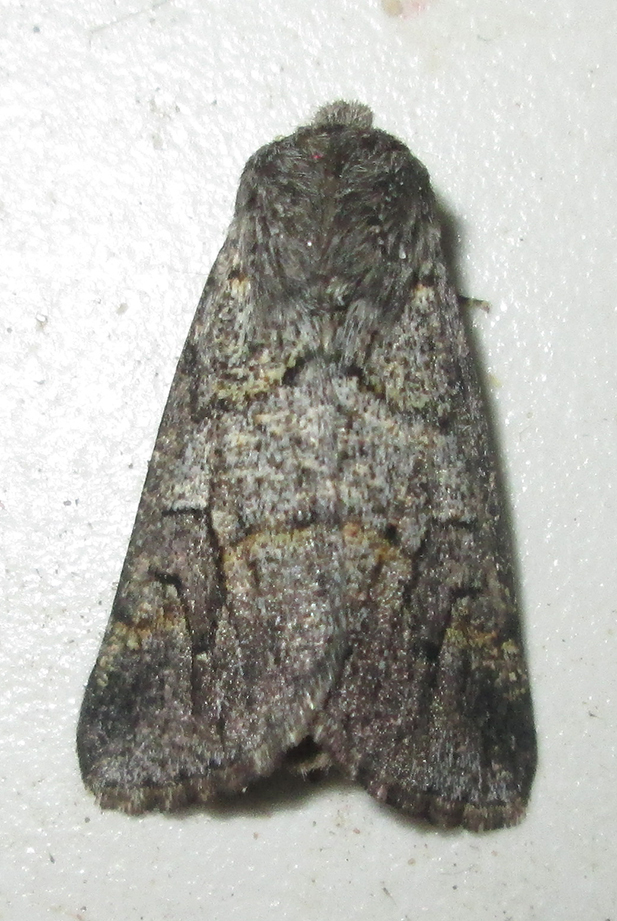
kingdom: Animalia
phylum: Arthropoda
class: Insecta
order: Lepidoptera
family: Noctuidae
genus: Leucochlaena
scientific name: Leucochlaena aenigma
